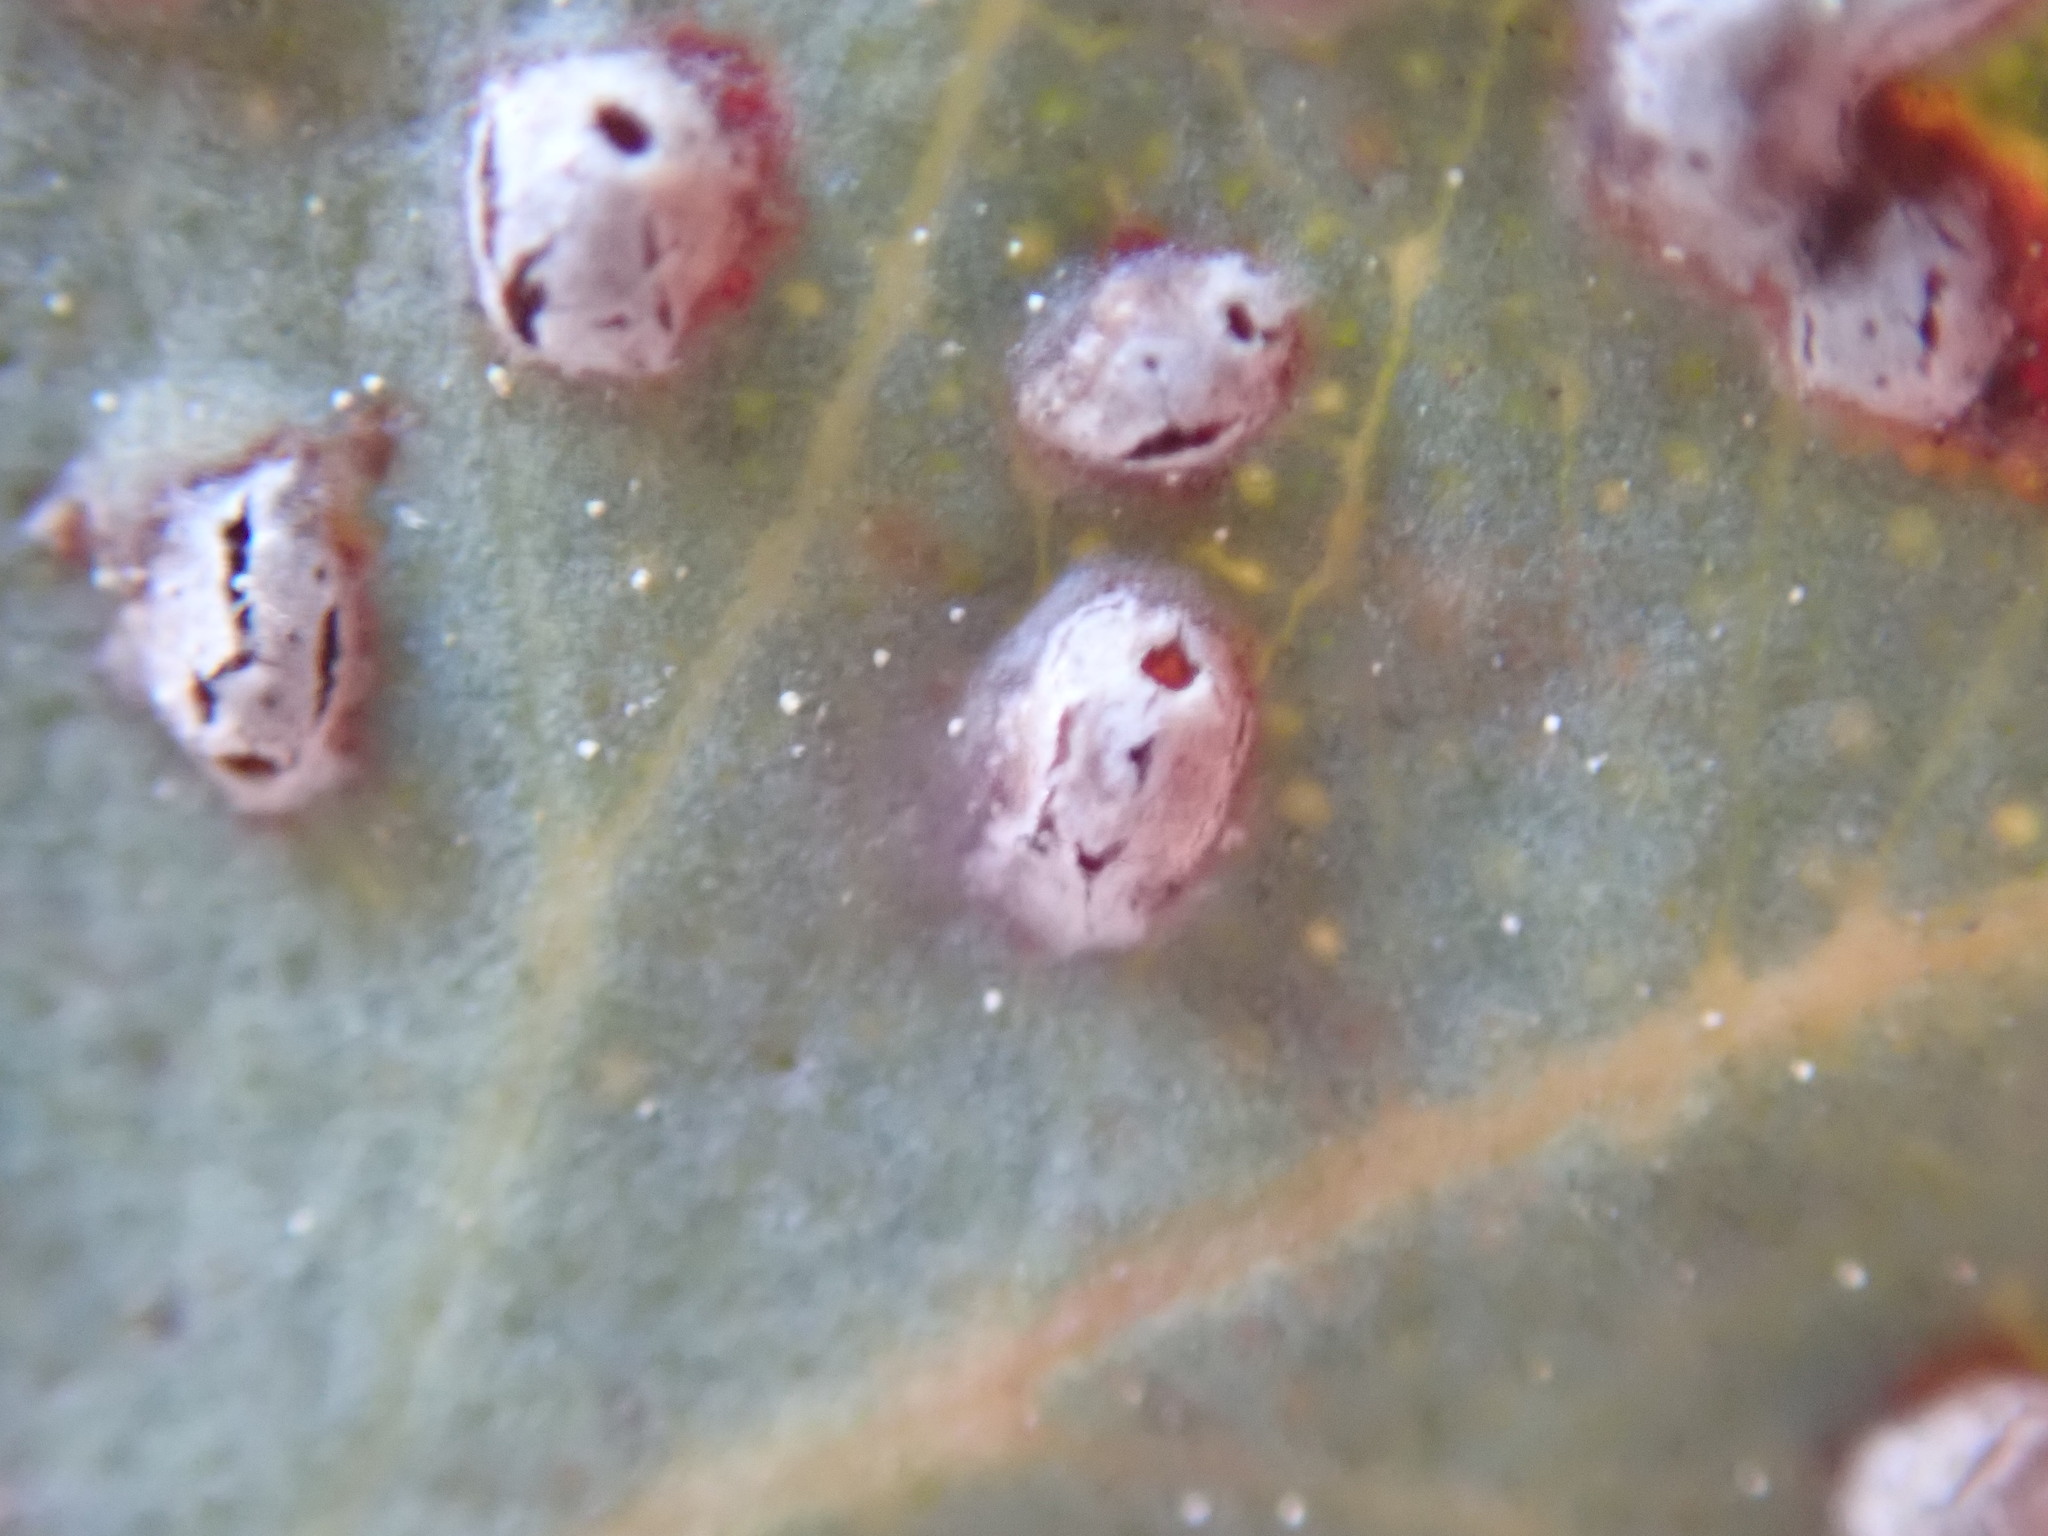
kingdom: Animalia
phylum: Arthropoda
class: Insecta
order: Hymenoptera
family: Eulophidae
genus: Ophelimus
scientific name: Ophelimus maskelli
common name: Gall wasp
